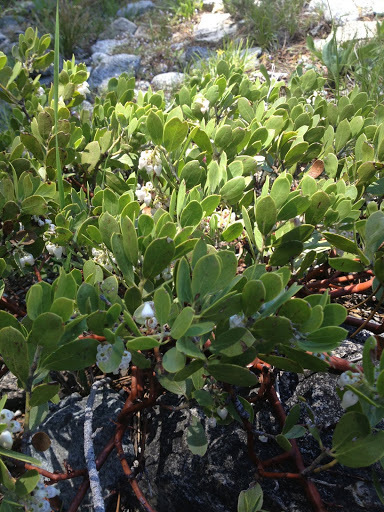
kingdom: Plantae
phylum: Tracheophyta
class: Magnoliopsida
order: Ericales
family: Ericaceae
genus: Arctostaphylos
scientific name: Arctostaphylos nevadensis
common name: Pinemat manzanita
